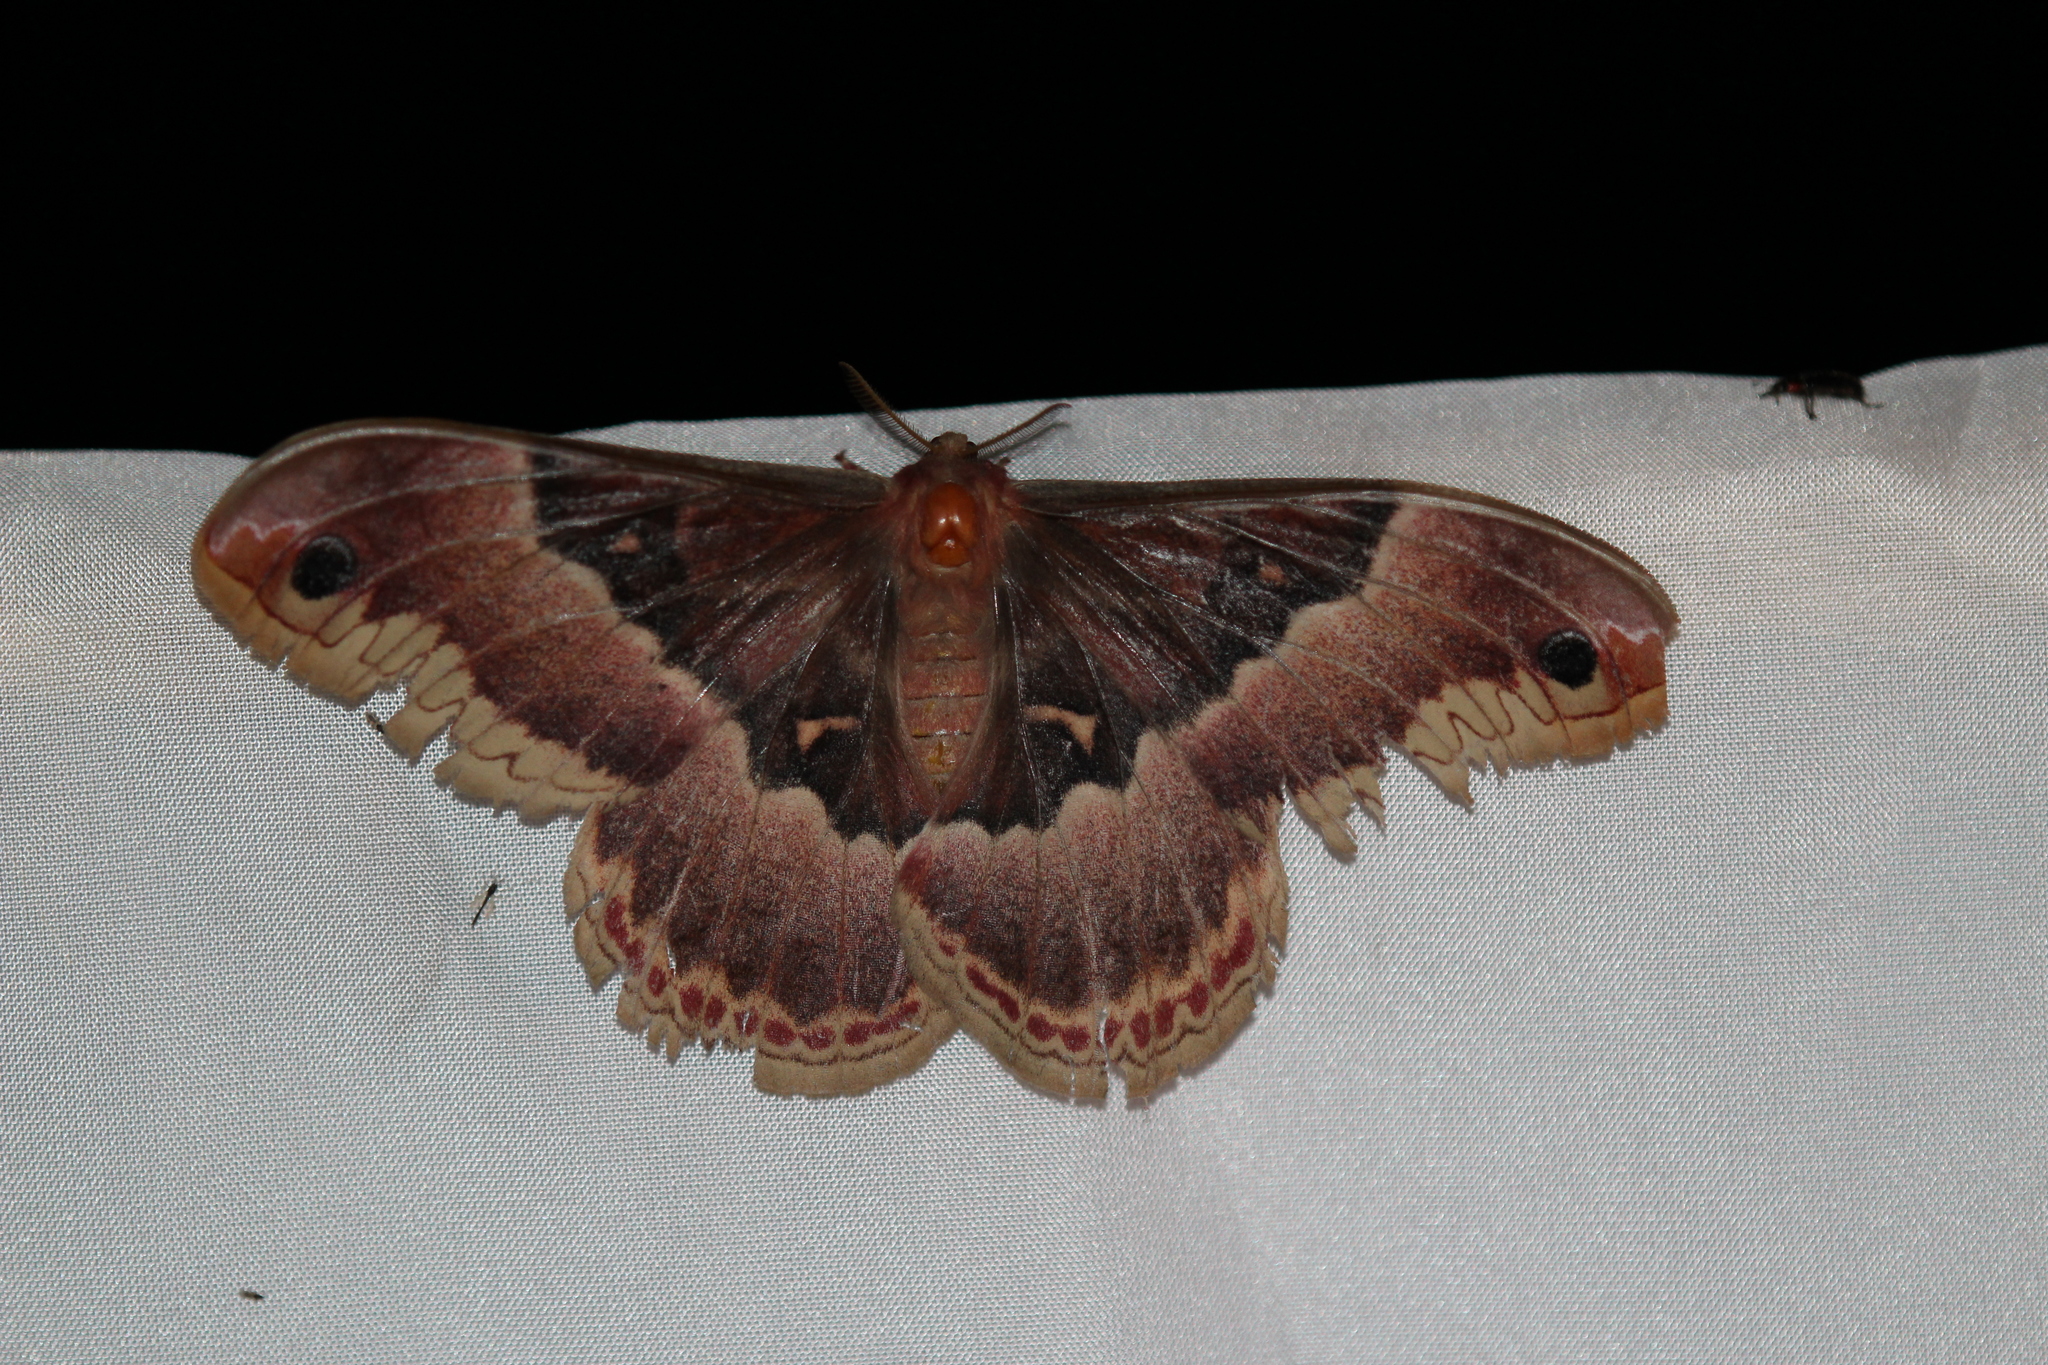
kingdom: Animalia
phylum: Arthropoda
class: Insecta
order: Lepidoptera
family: Saturniidae
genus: Callosamia
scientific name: Callosamia promethea
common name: Promethea silkmoth
